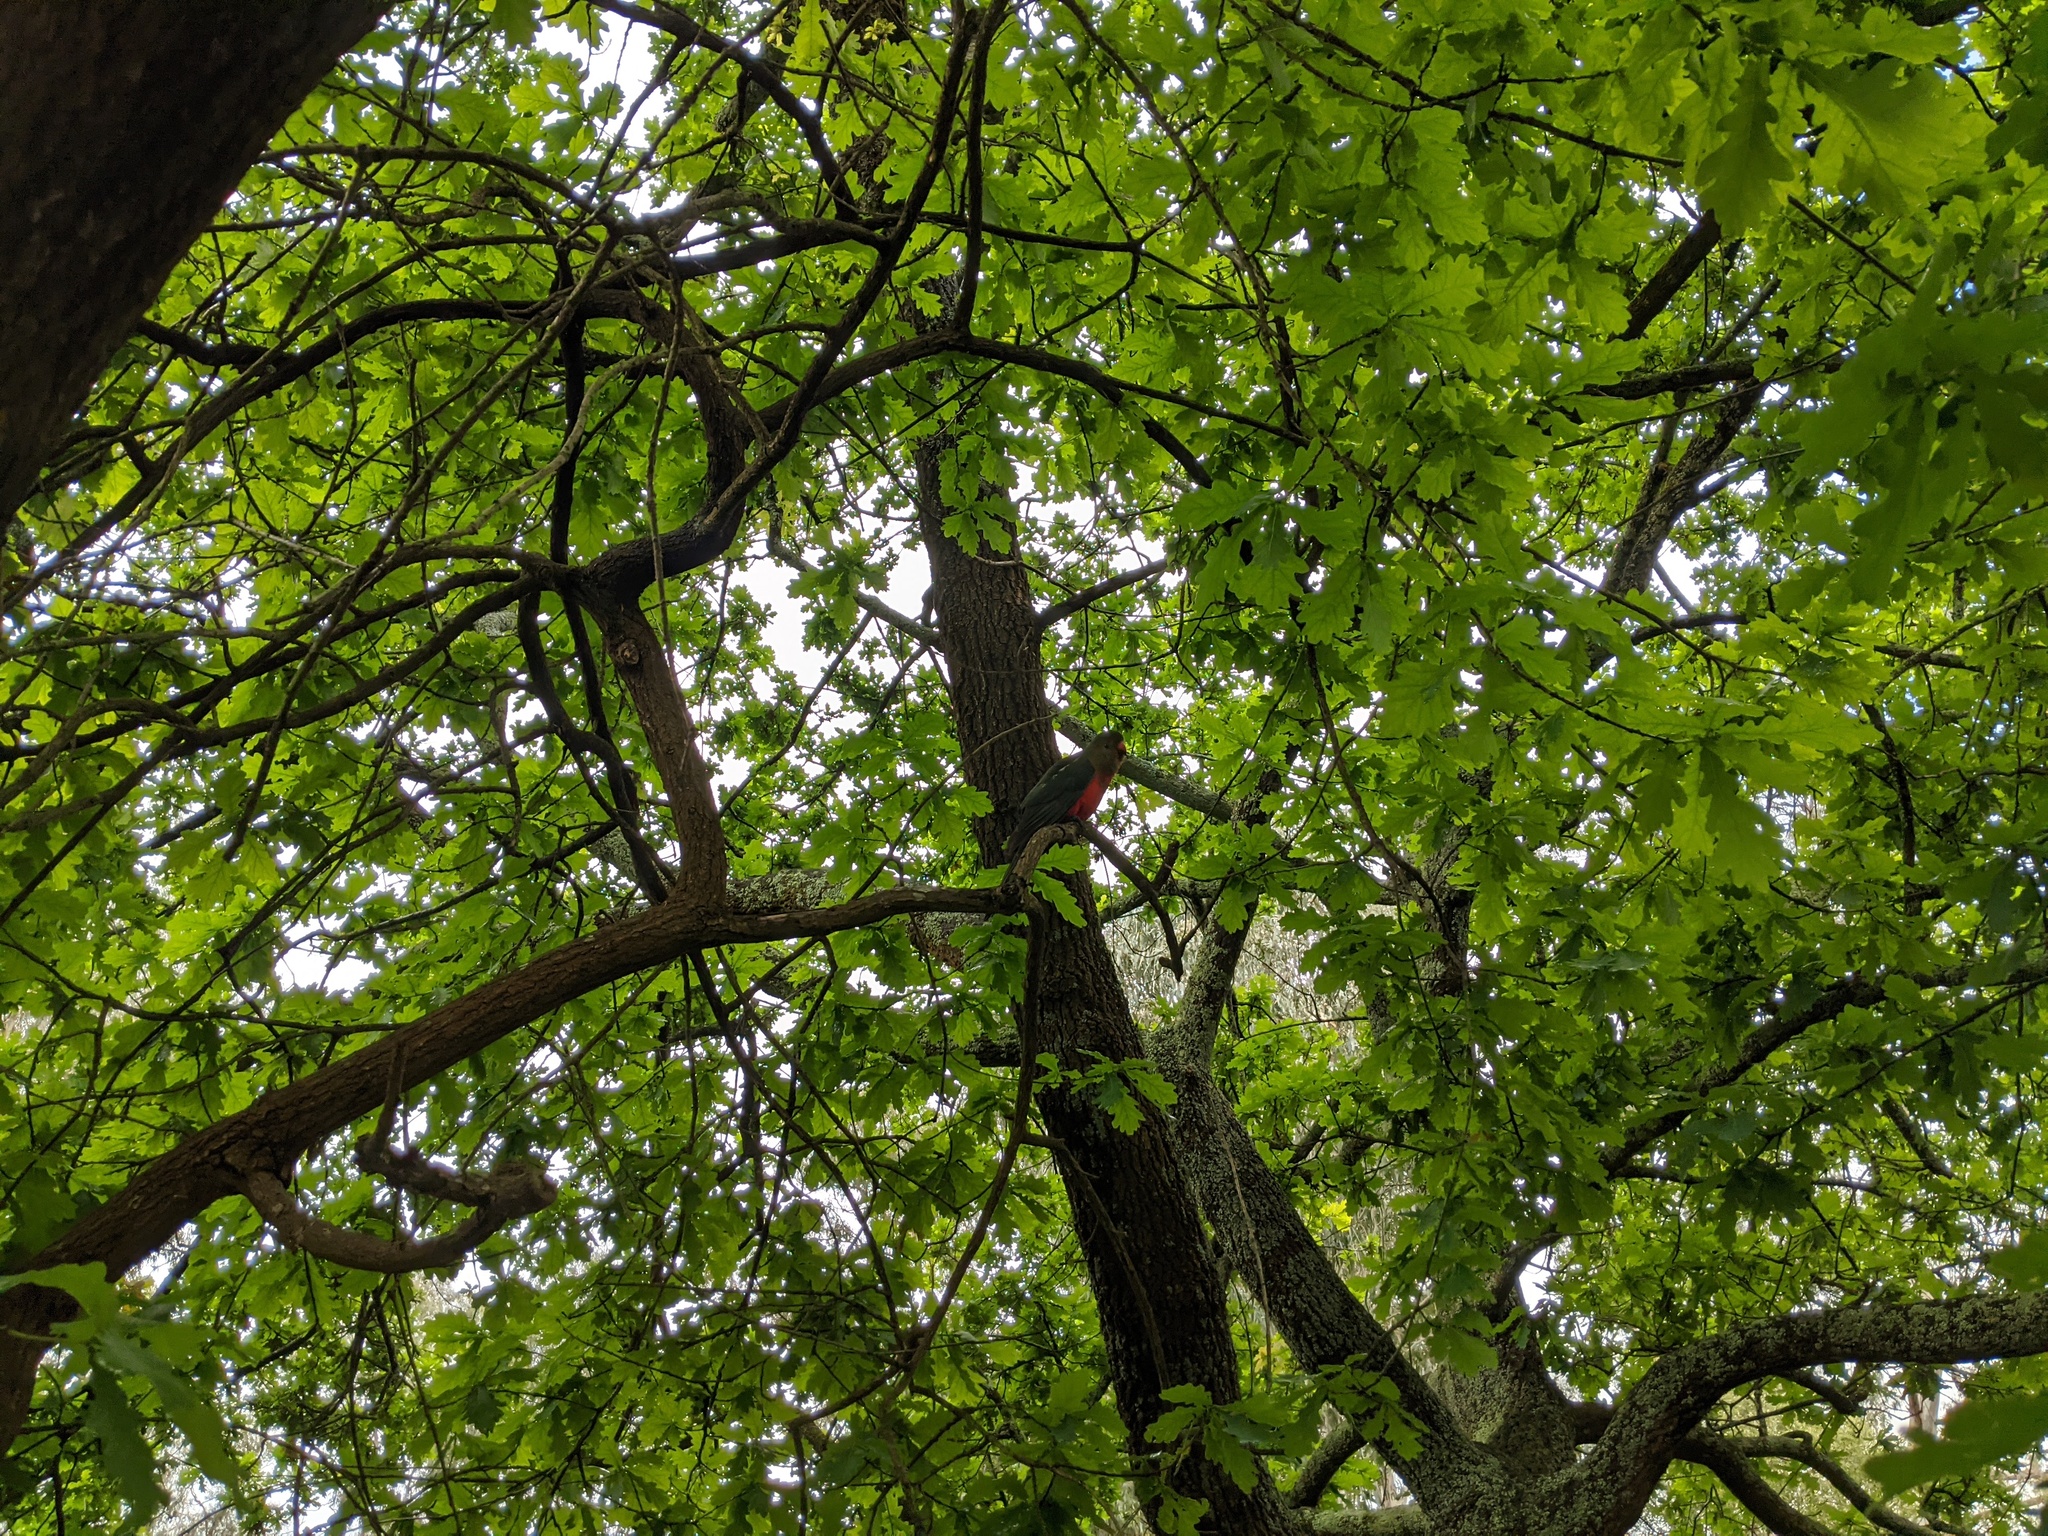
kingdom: Animalia
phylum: Chordata
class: Aves
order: Psittaciformes
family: Psittacidae
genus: Alisterus
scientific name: Alisterus scapularis
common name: Australian king parrot
